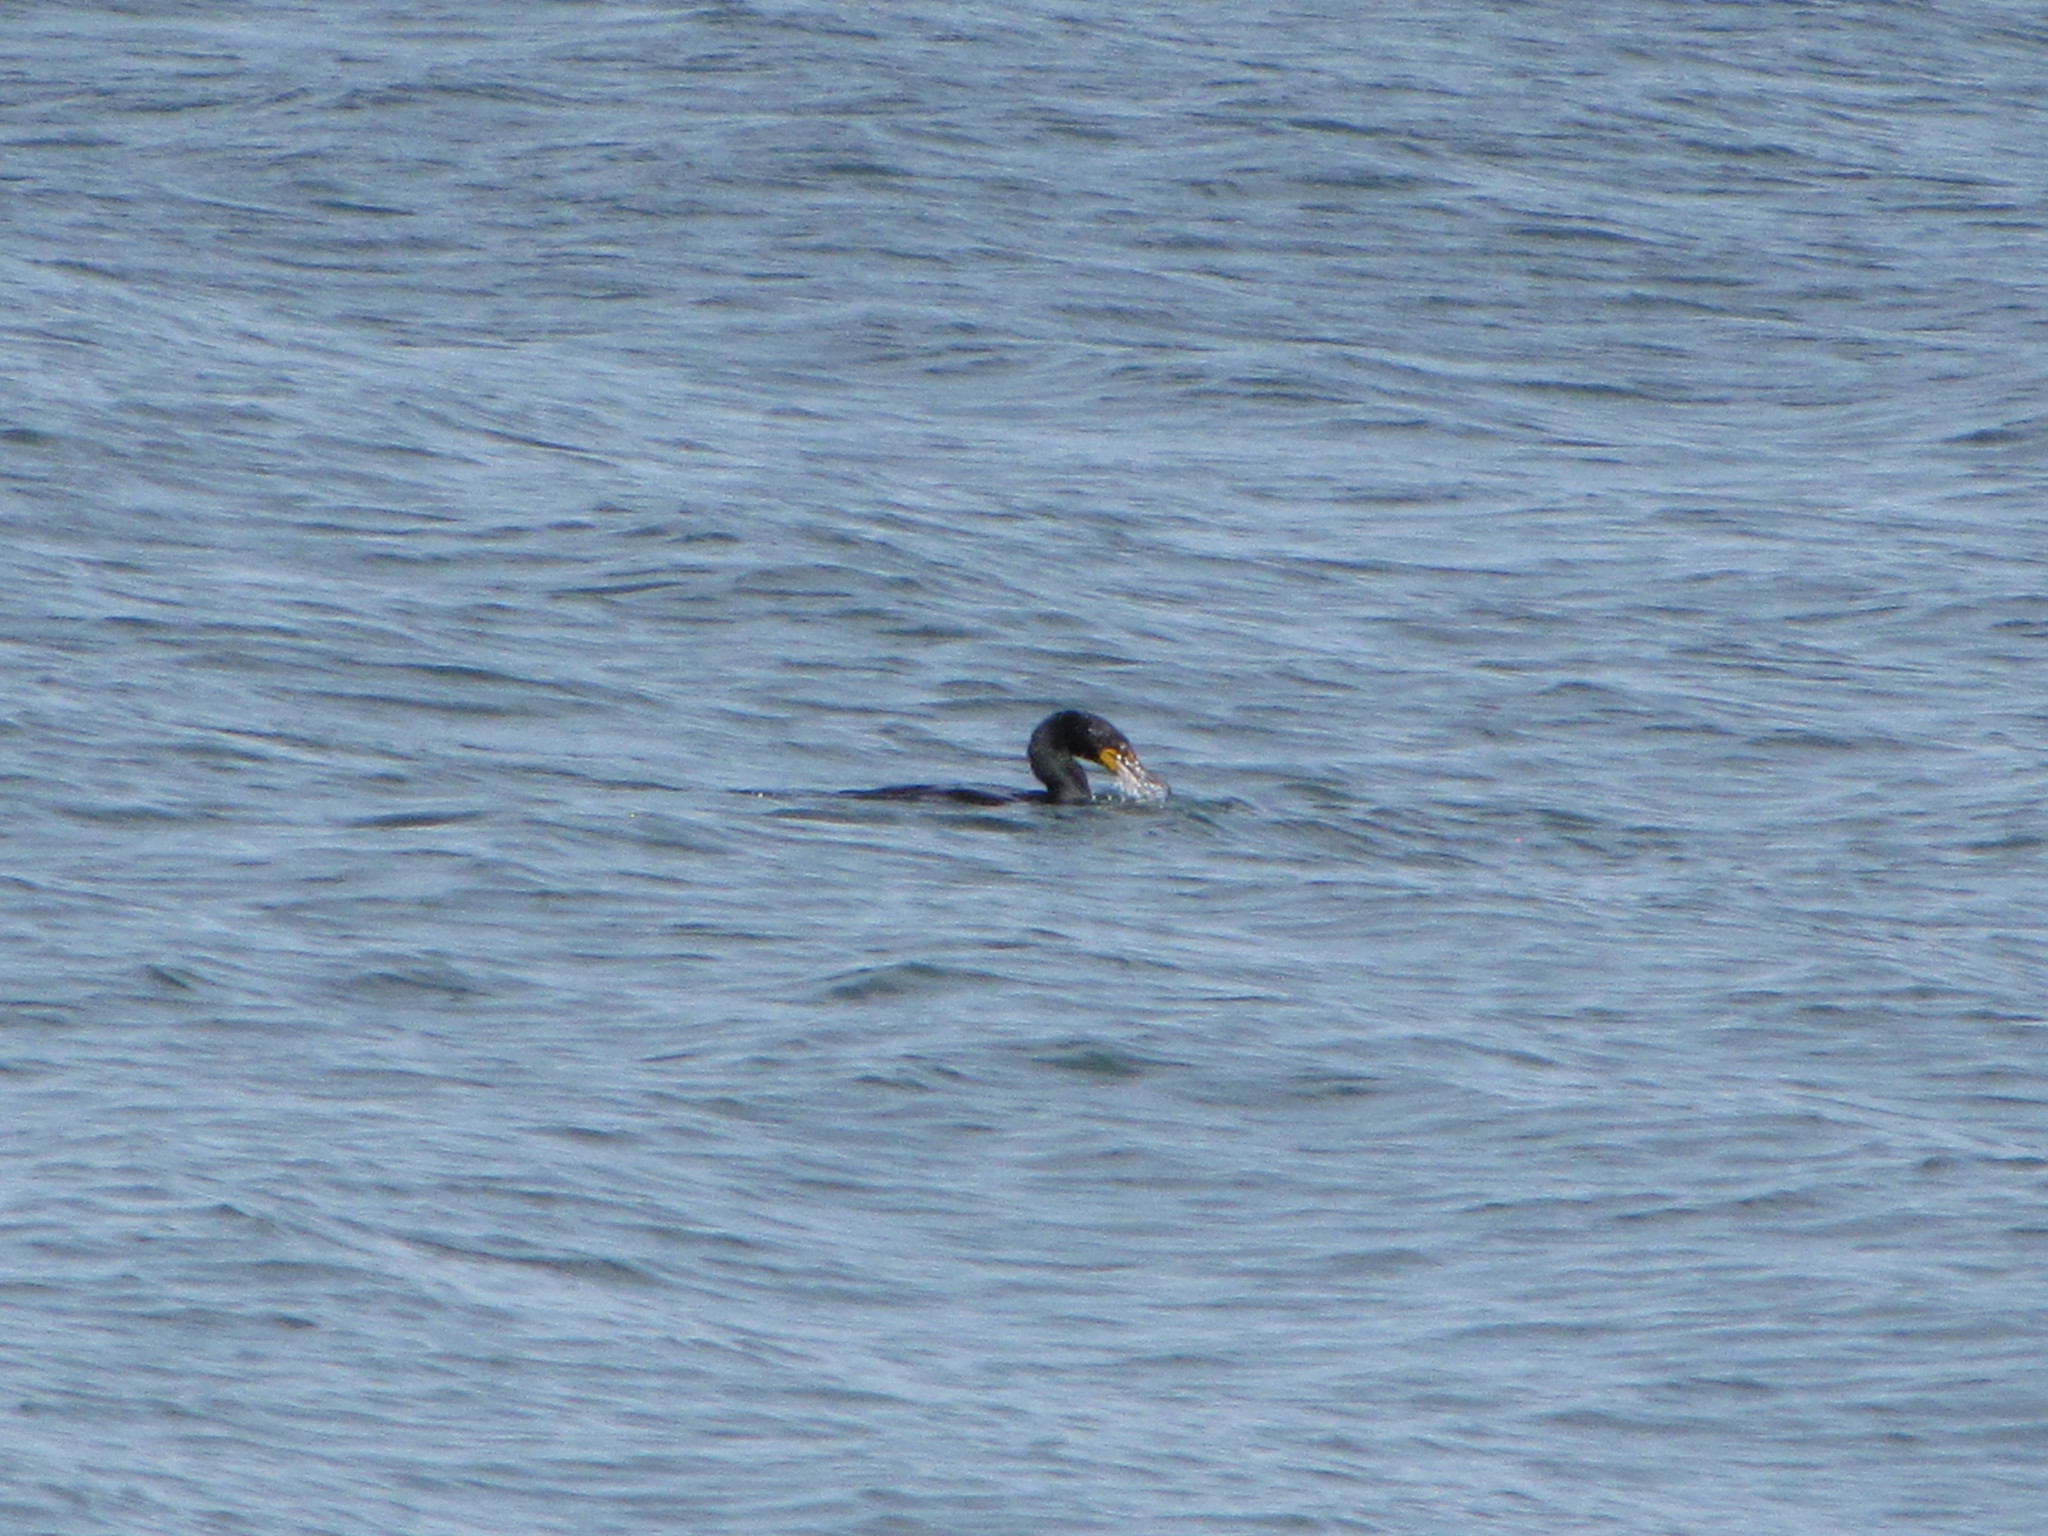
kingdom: Animalia
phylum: Chordata
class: Aves
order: Suliformes
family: Phalacrocoracidae
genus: Phalacrocorax
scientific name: Phalacrocorax auritus
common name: Double-crested cormorant
